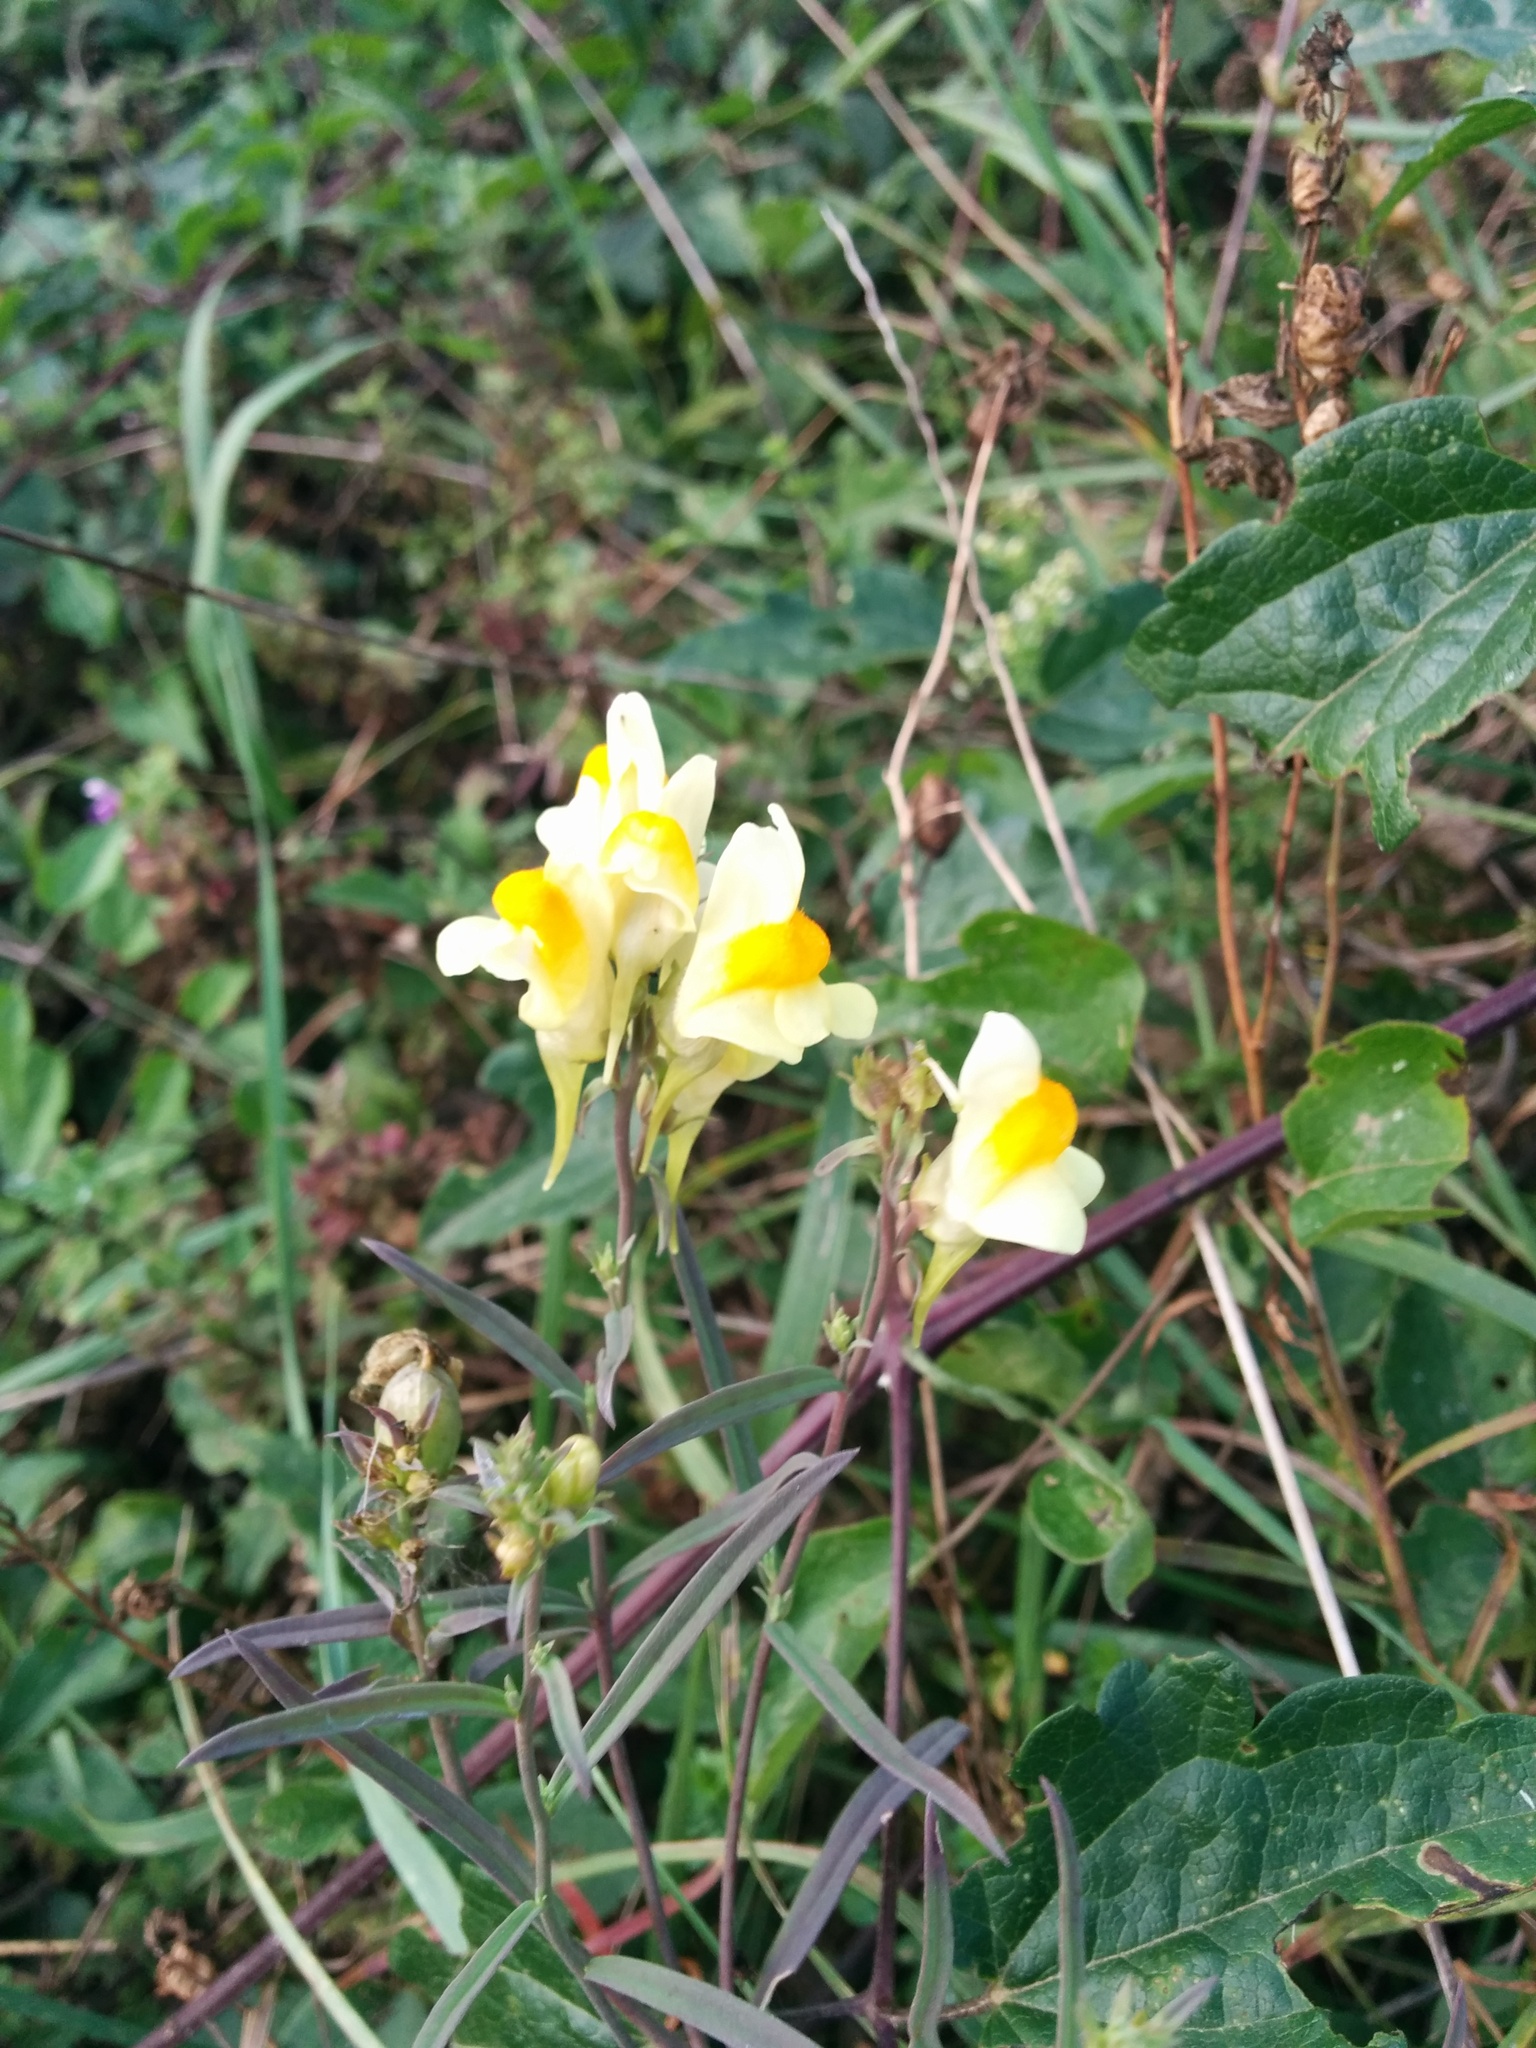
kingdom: Plantae
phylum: Tracheophyta
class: Magnoliopsida
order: Lamiales
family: Plantaginaceae
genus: Linaria
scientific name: Linaria vulgaris
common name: Butter and eggs
